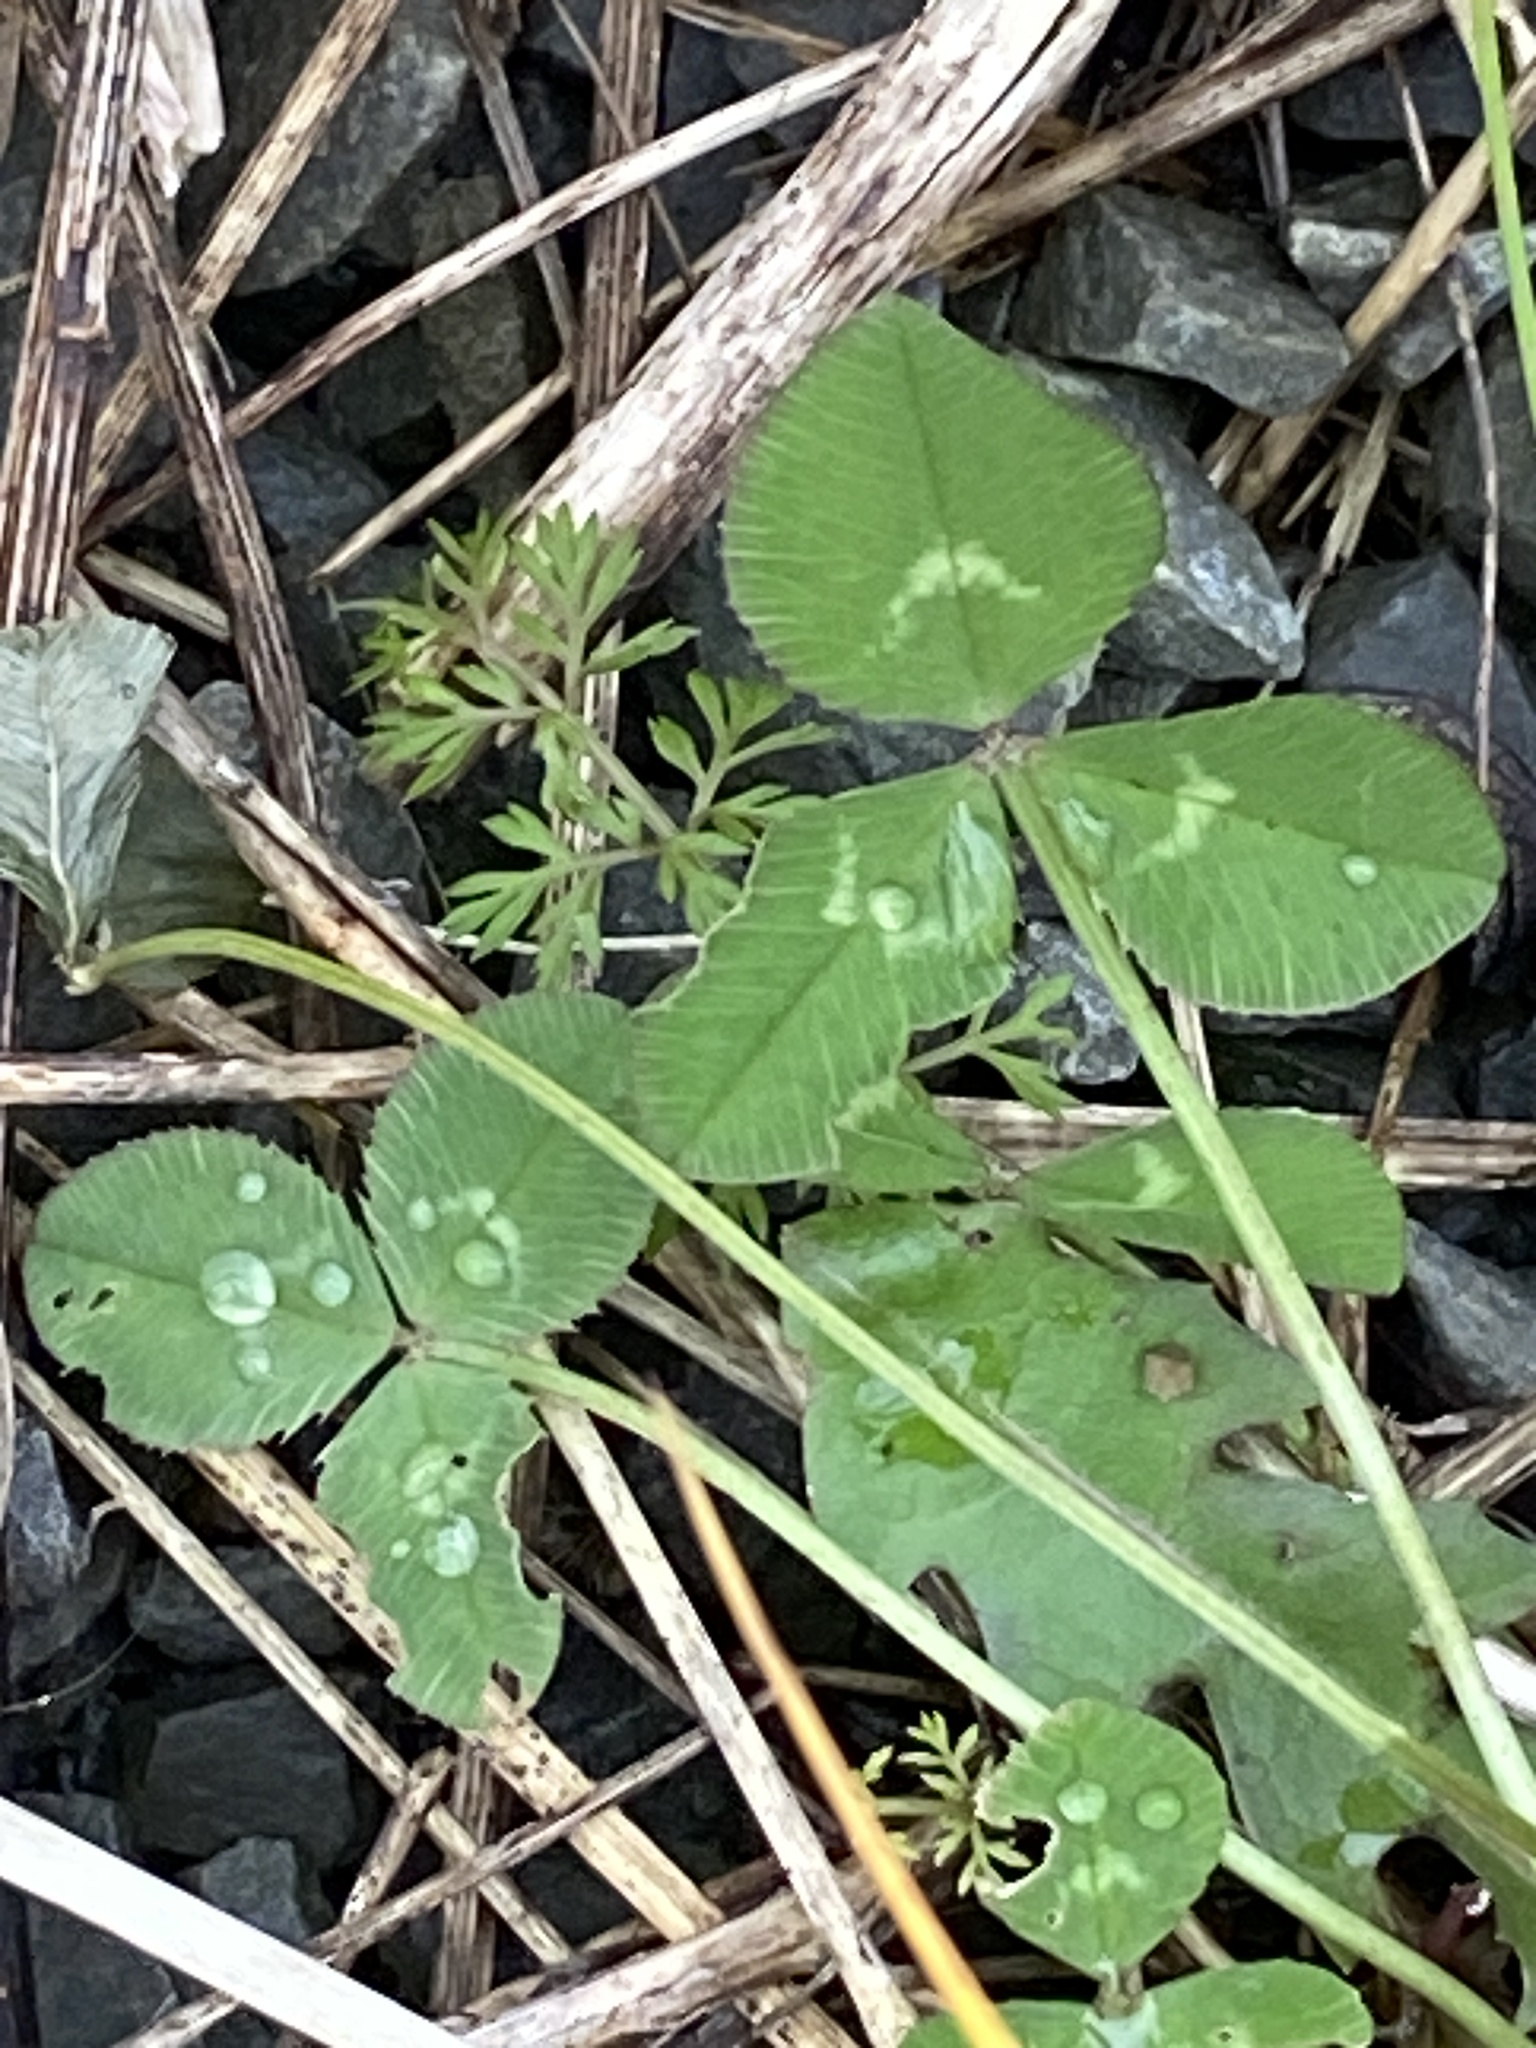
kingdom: Plantae
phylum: Tracheophyta
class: Magnoliopsida
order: Fabales
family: Fabaceae
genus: Trifolium
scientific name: Trifolium repens
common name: White clover
